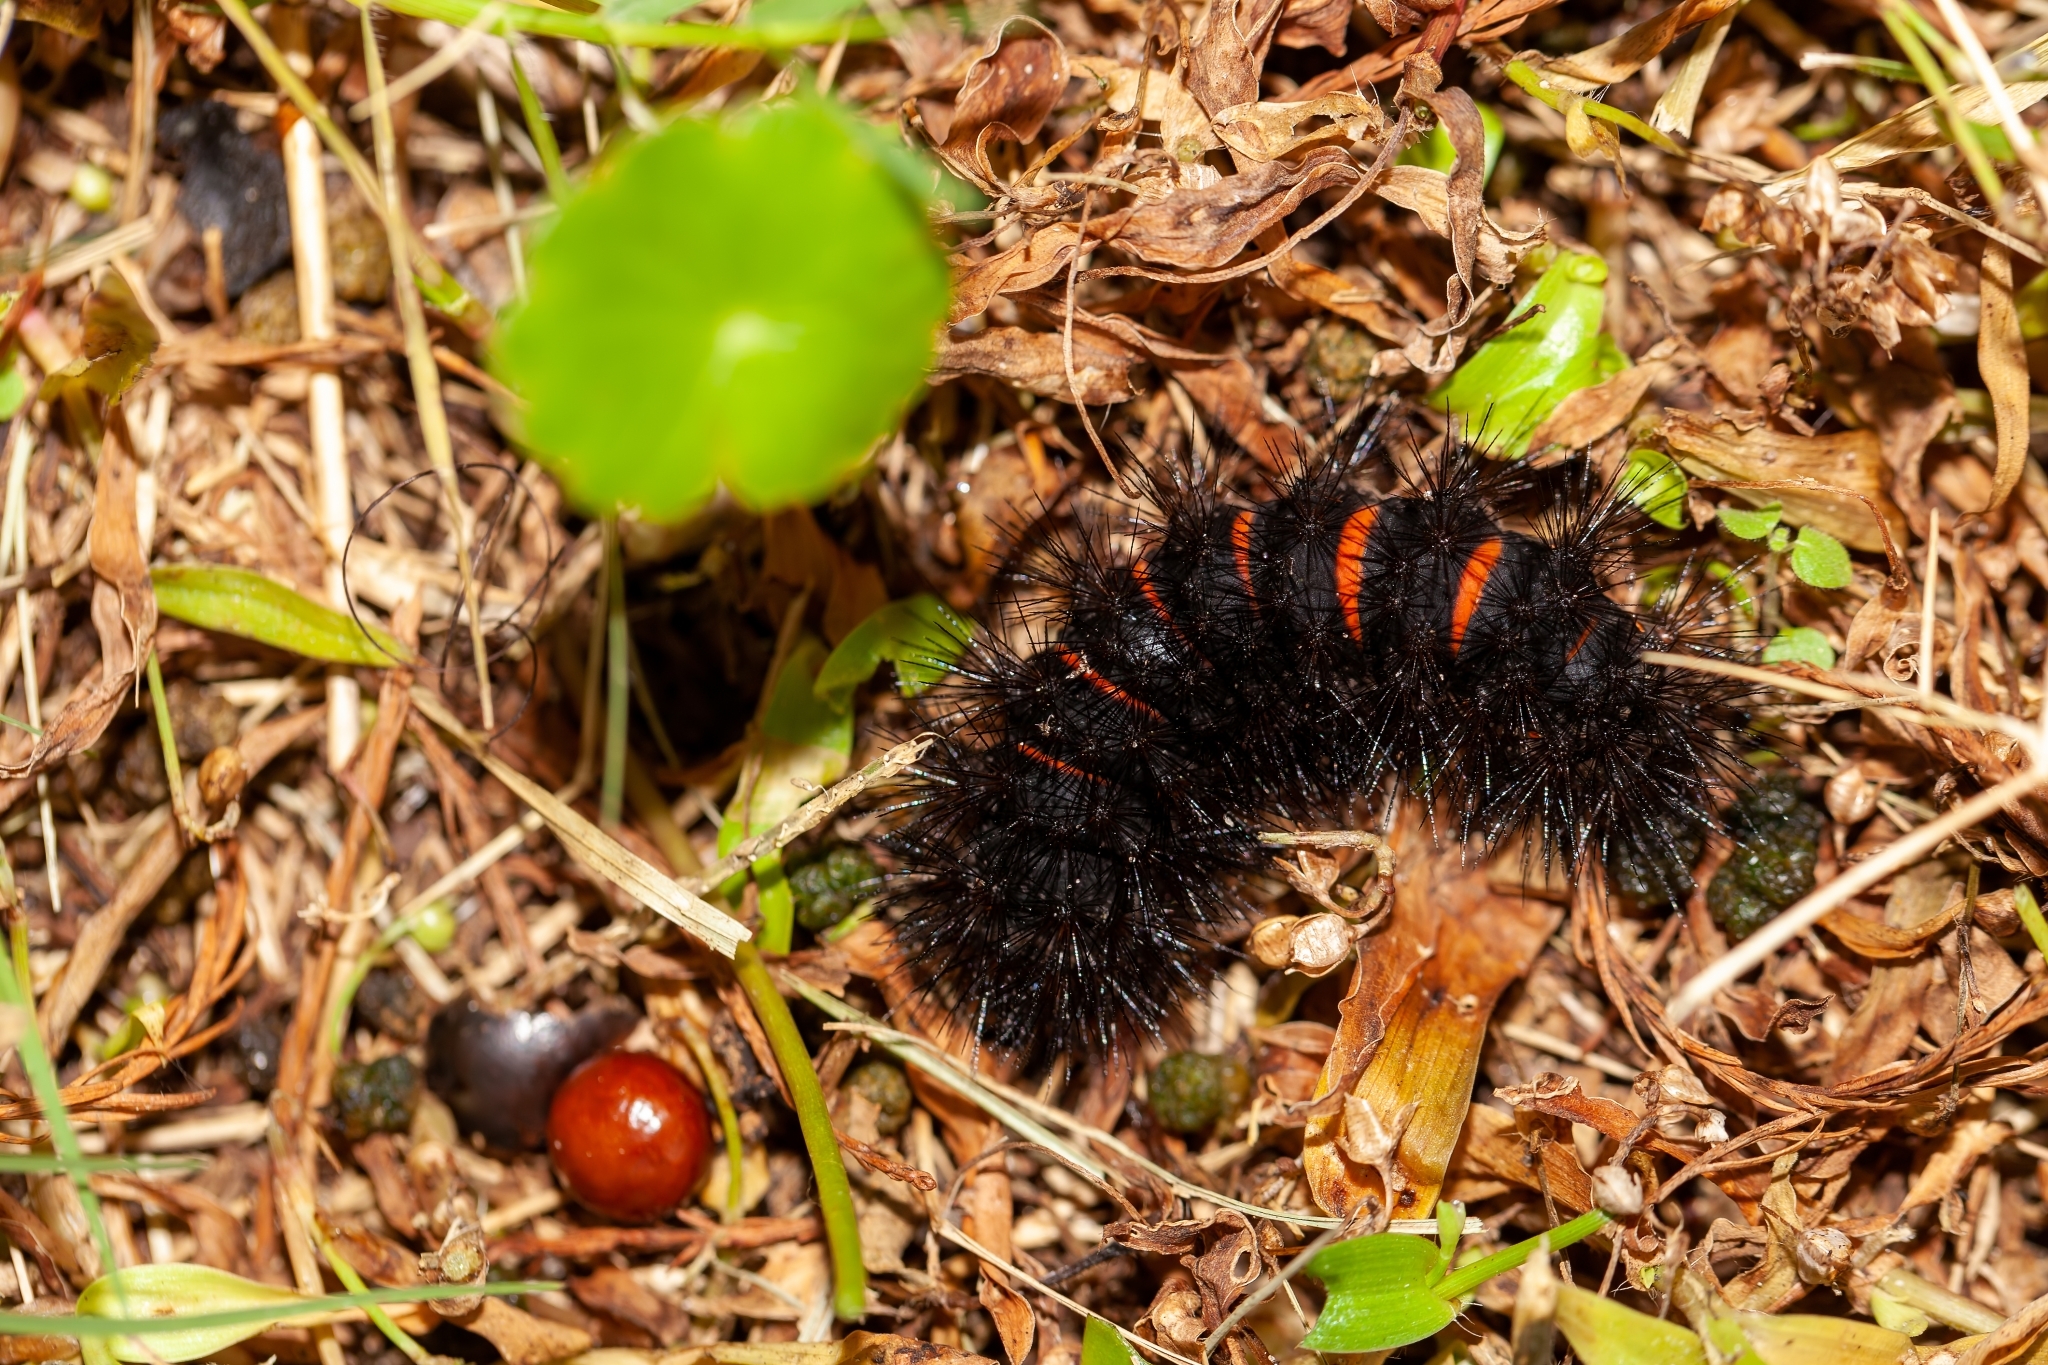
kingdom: Animalia
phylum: Arthropoda
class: Insecta
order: Lepidoptera
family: Erebidae
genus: Hypercompe
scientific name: Hypercompe scribonia
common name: Giant leopard moth
